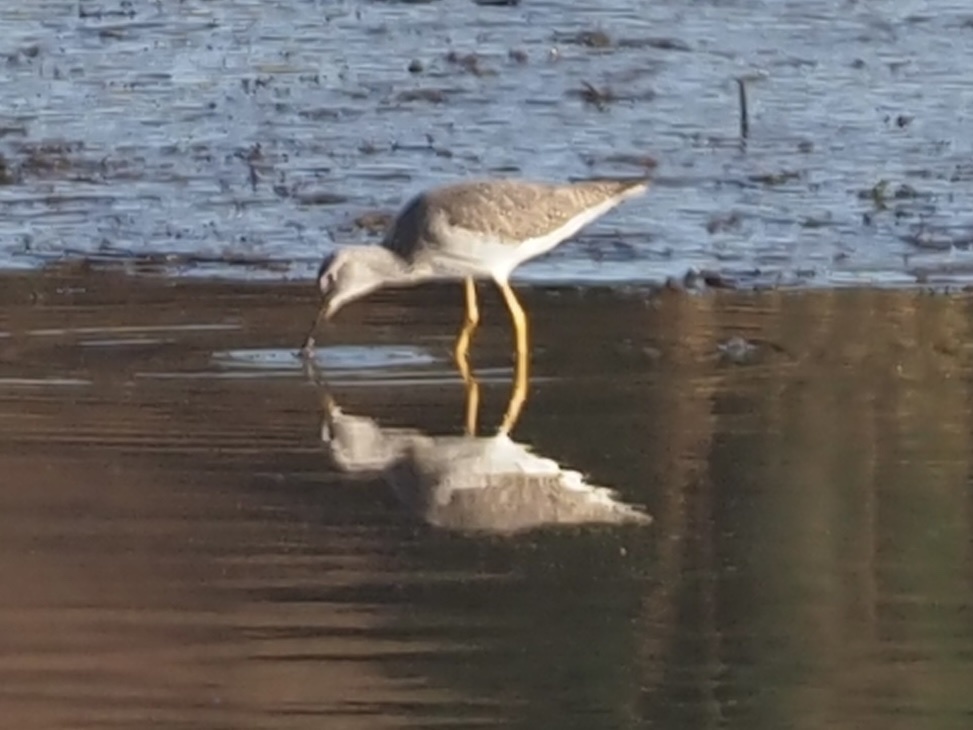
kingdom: Animalia
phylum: Chordata
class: Aves
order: Charadriiformes
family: Scolopacidae
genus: Tringa
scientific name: Tringa melanoleuca
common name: Greater yellowlegs
